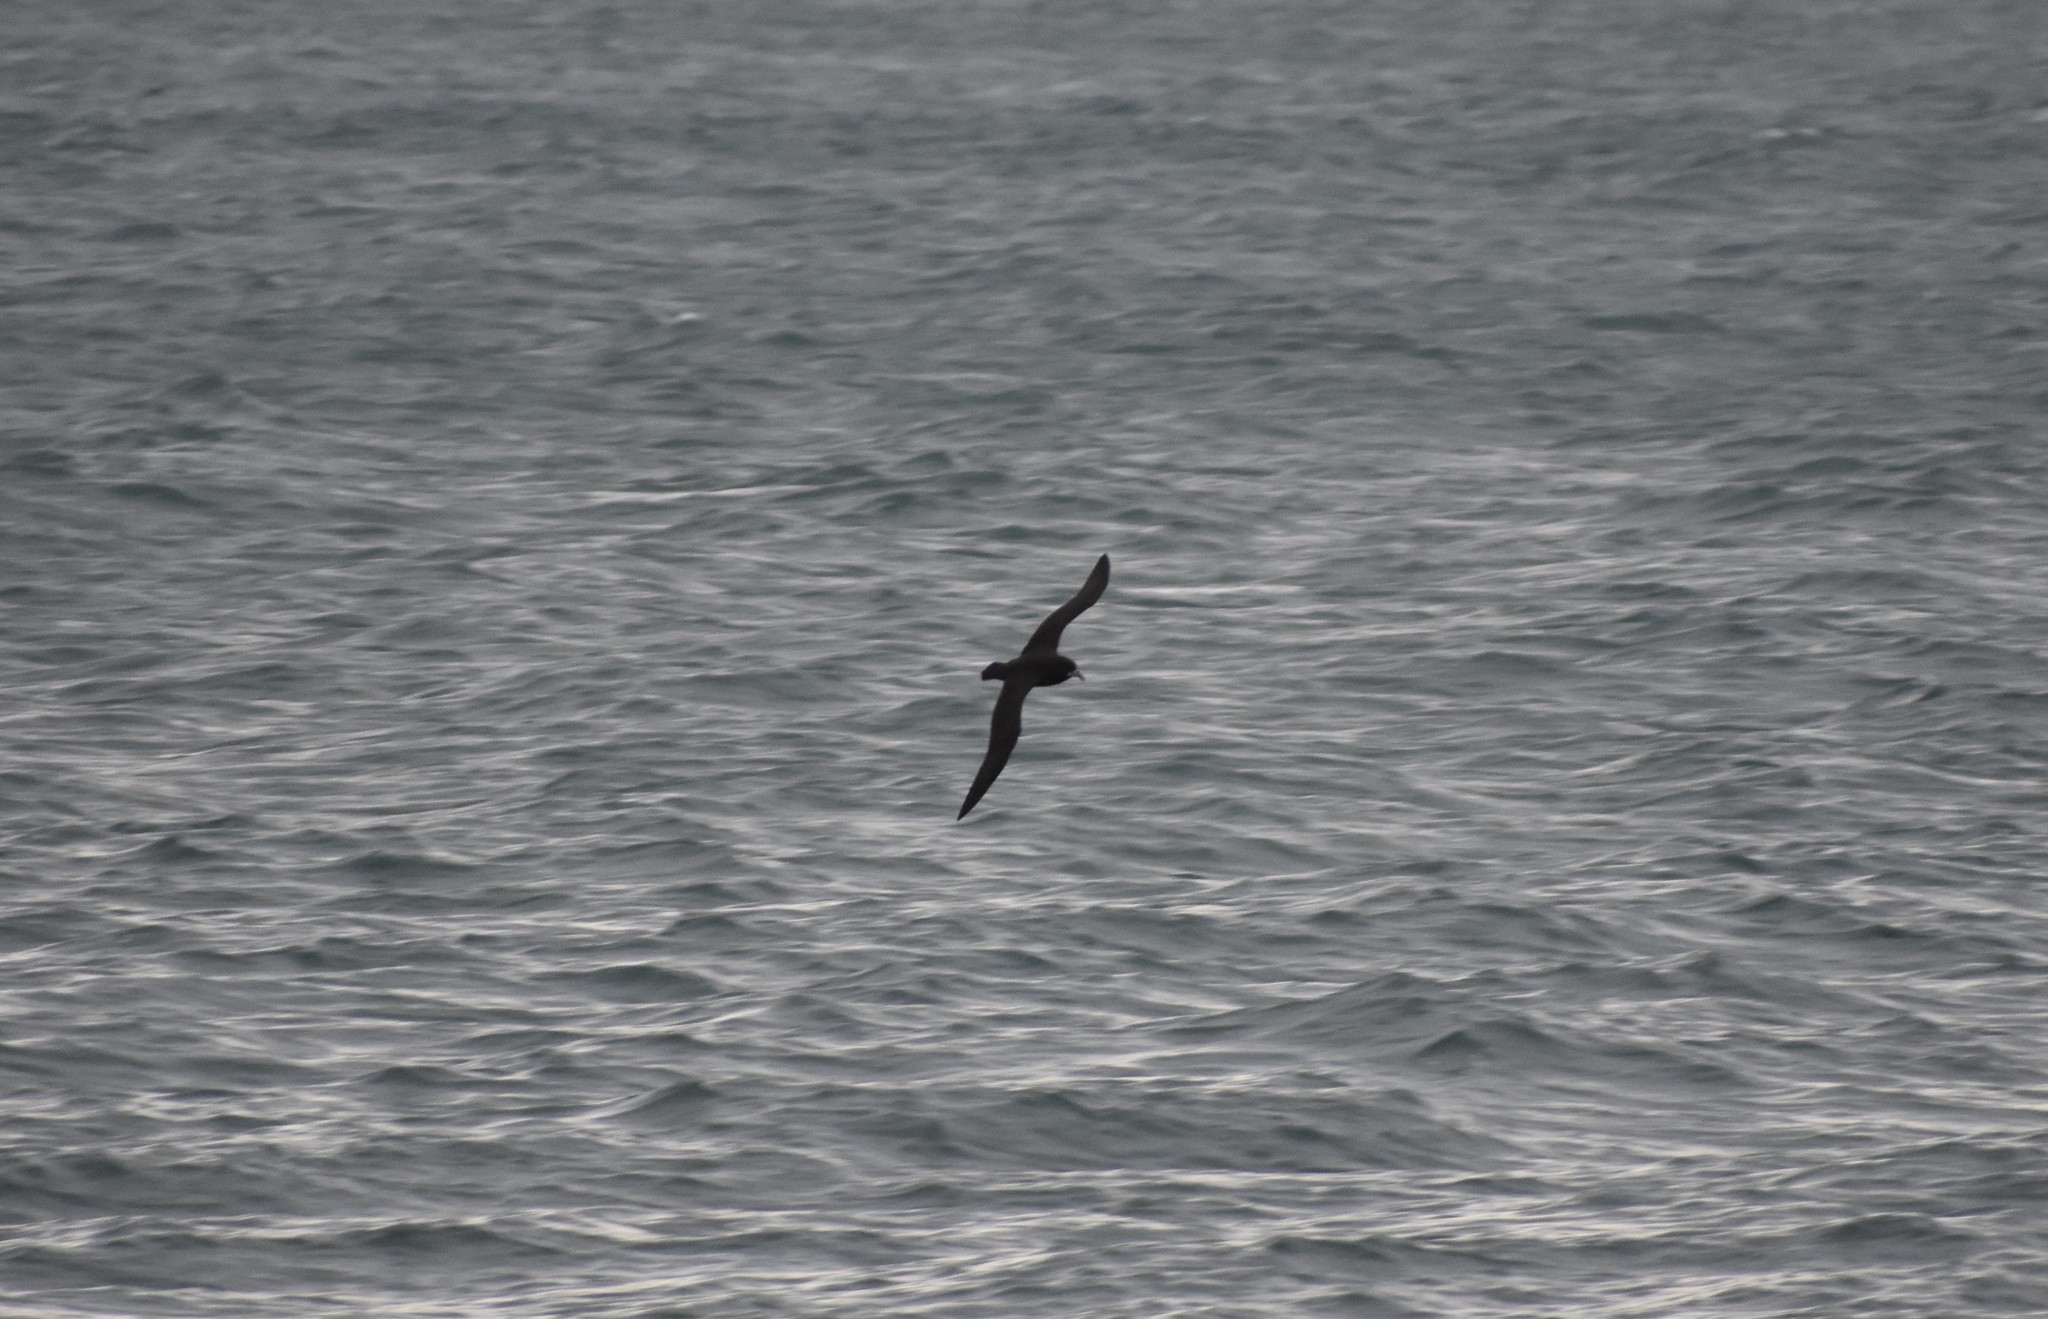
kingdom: Animalia
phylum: Chordata
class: Aves
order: Procellariiformes
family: Procellariidae
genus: Procellaria
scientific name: Procellaria aequinoctialis
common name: White-chinned petrel
